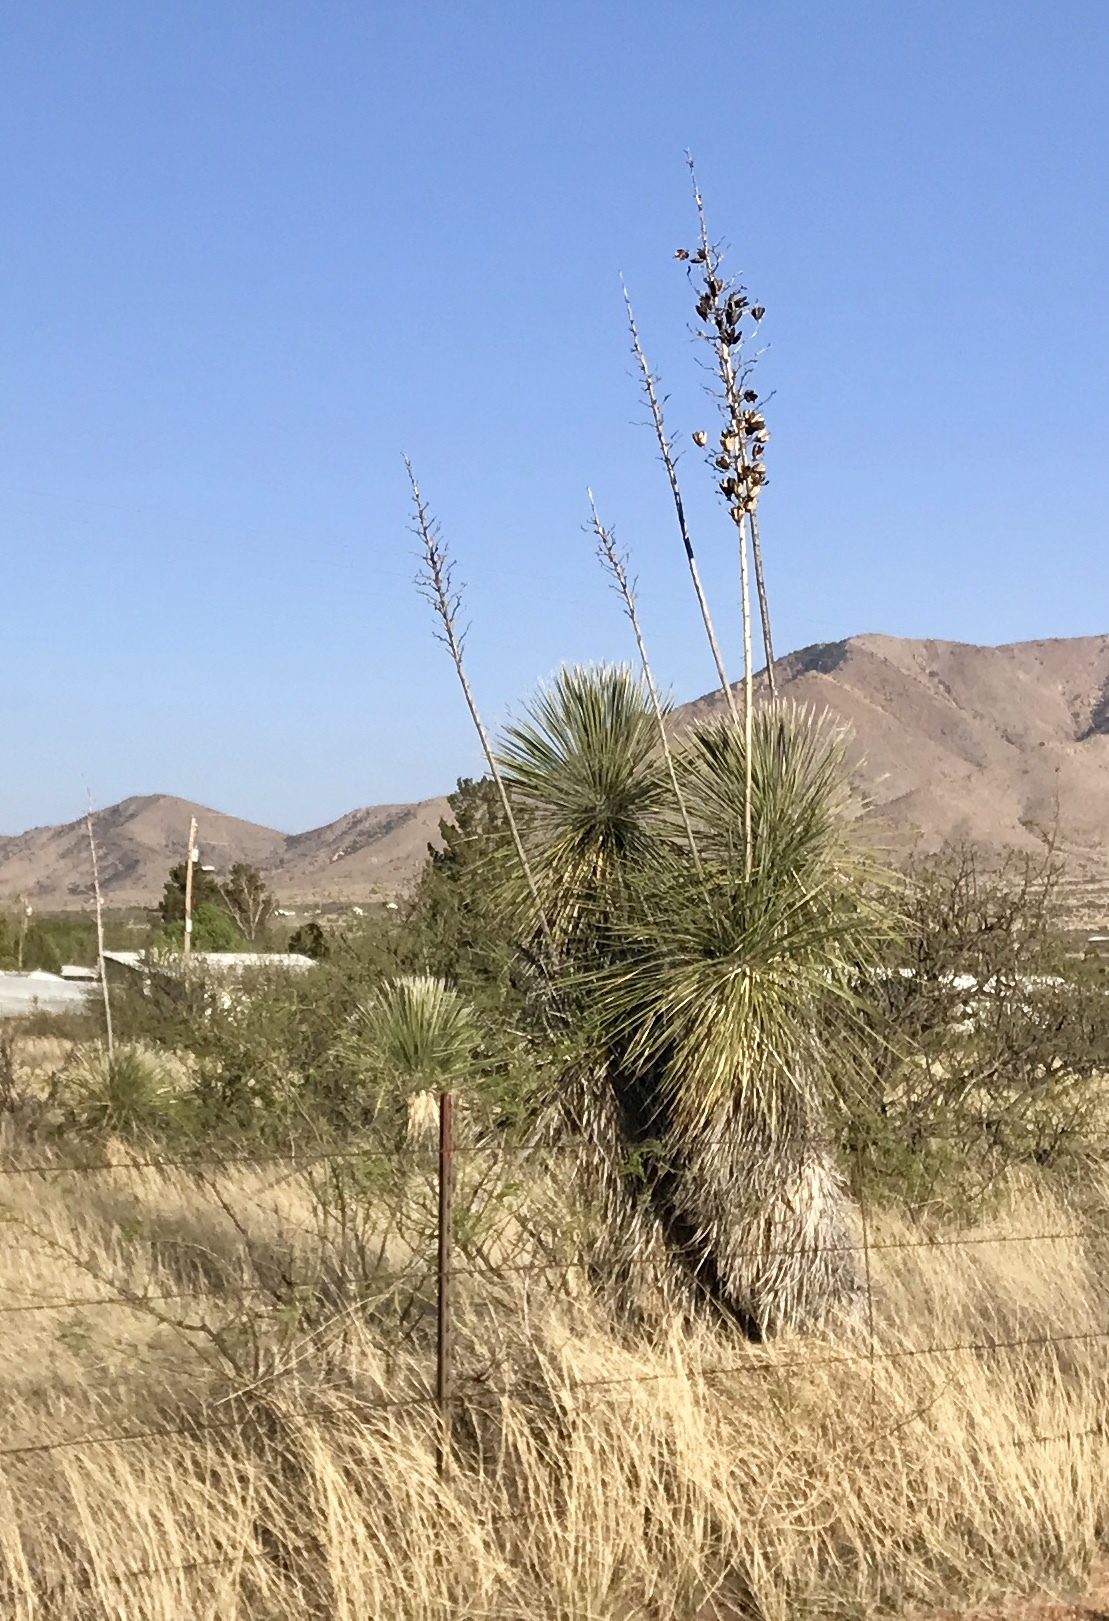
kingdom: Plantae
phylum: Tracheophyta
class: Liliopsida
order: Asparagales
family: Asparagaceae
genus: Yucca
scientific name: Yucca elata
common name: Palmella
